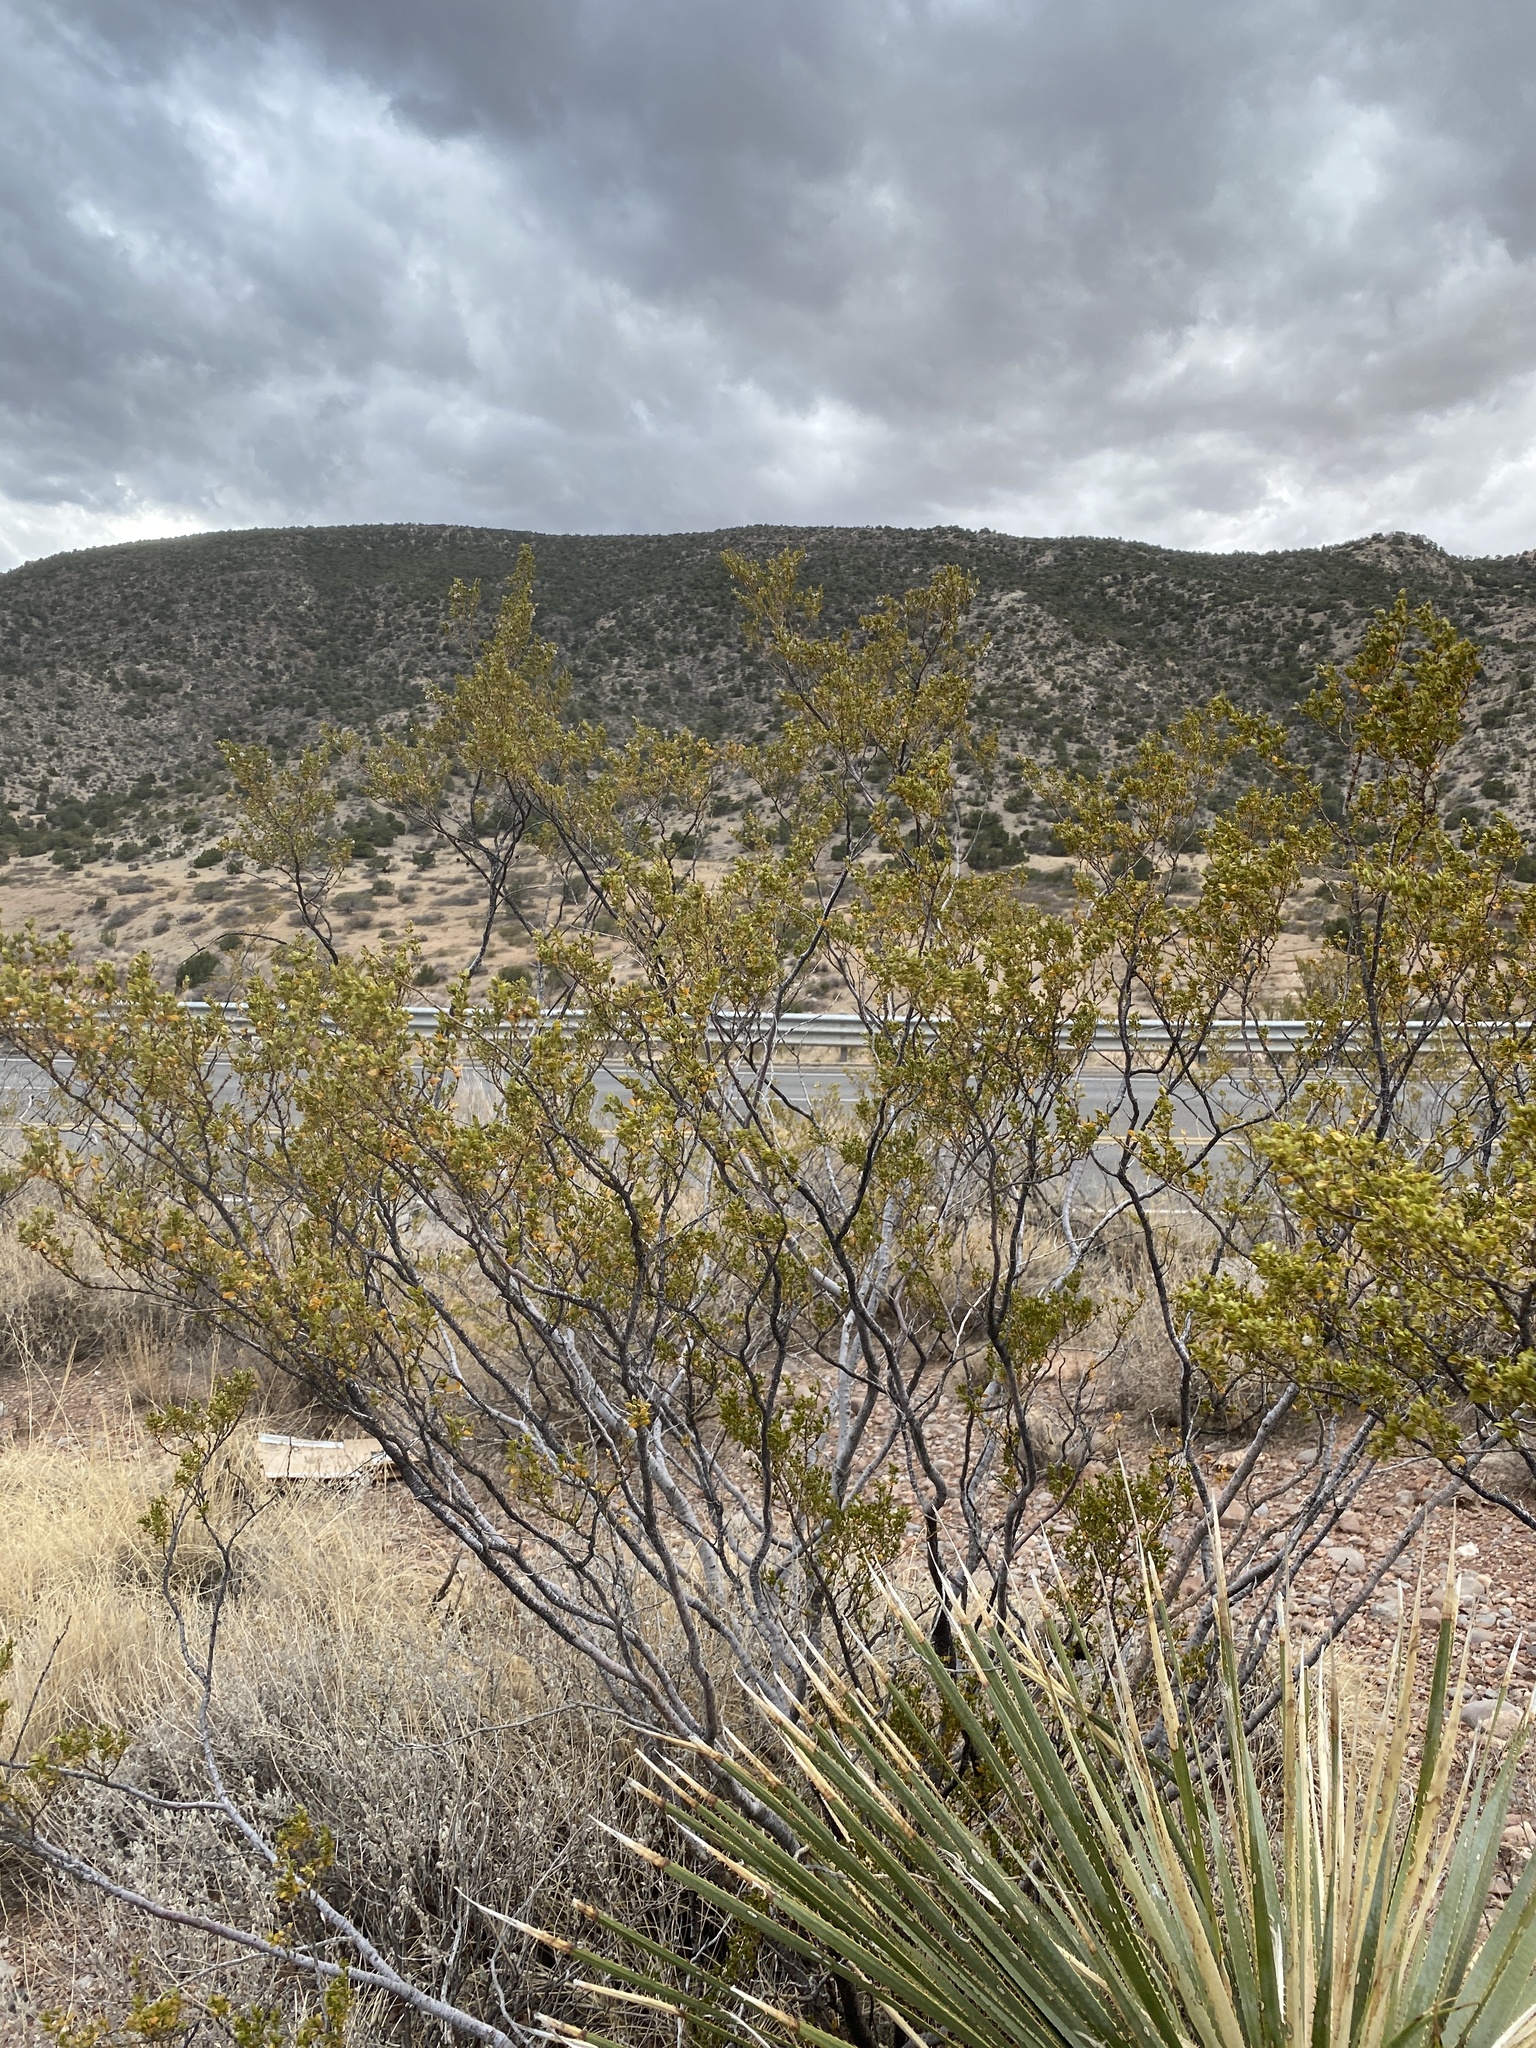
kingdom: Plantae
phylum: Tracheophyta
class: Magnoliopsida
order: Zygophyllales
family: Zygophyllaceae
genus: Larrea
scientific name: Larrea tridentata
